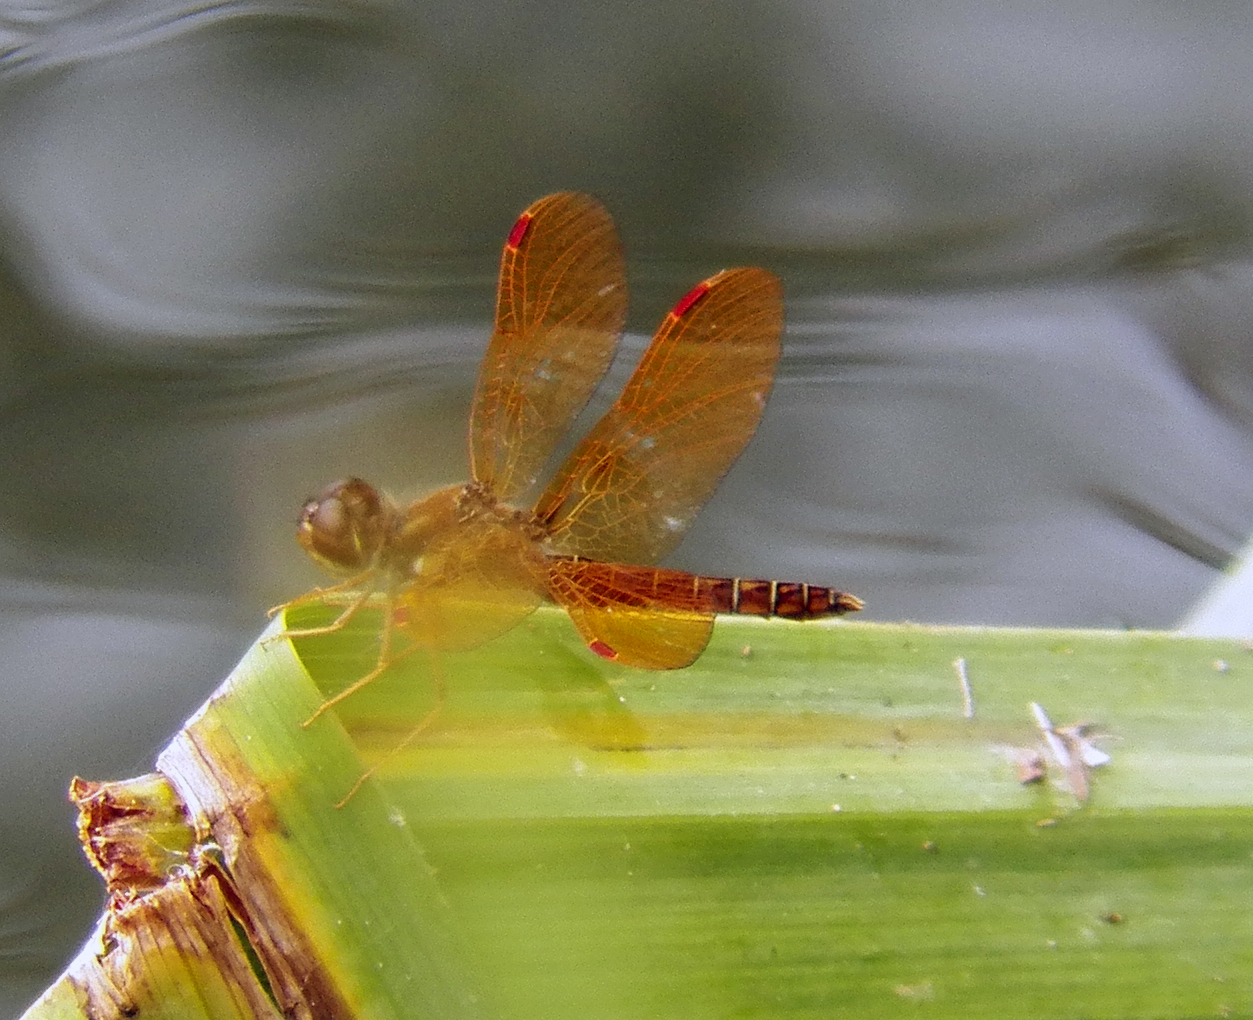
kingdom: Animalia
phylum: Arthropoda
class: Insecta
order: Odonata
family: Libellulidae
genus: Perithemis
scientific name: Perithemis tenera
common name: Eastern amberwing
